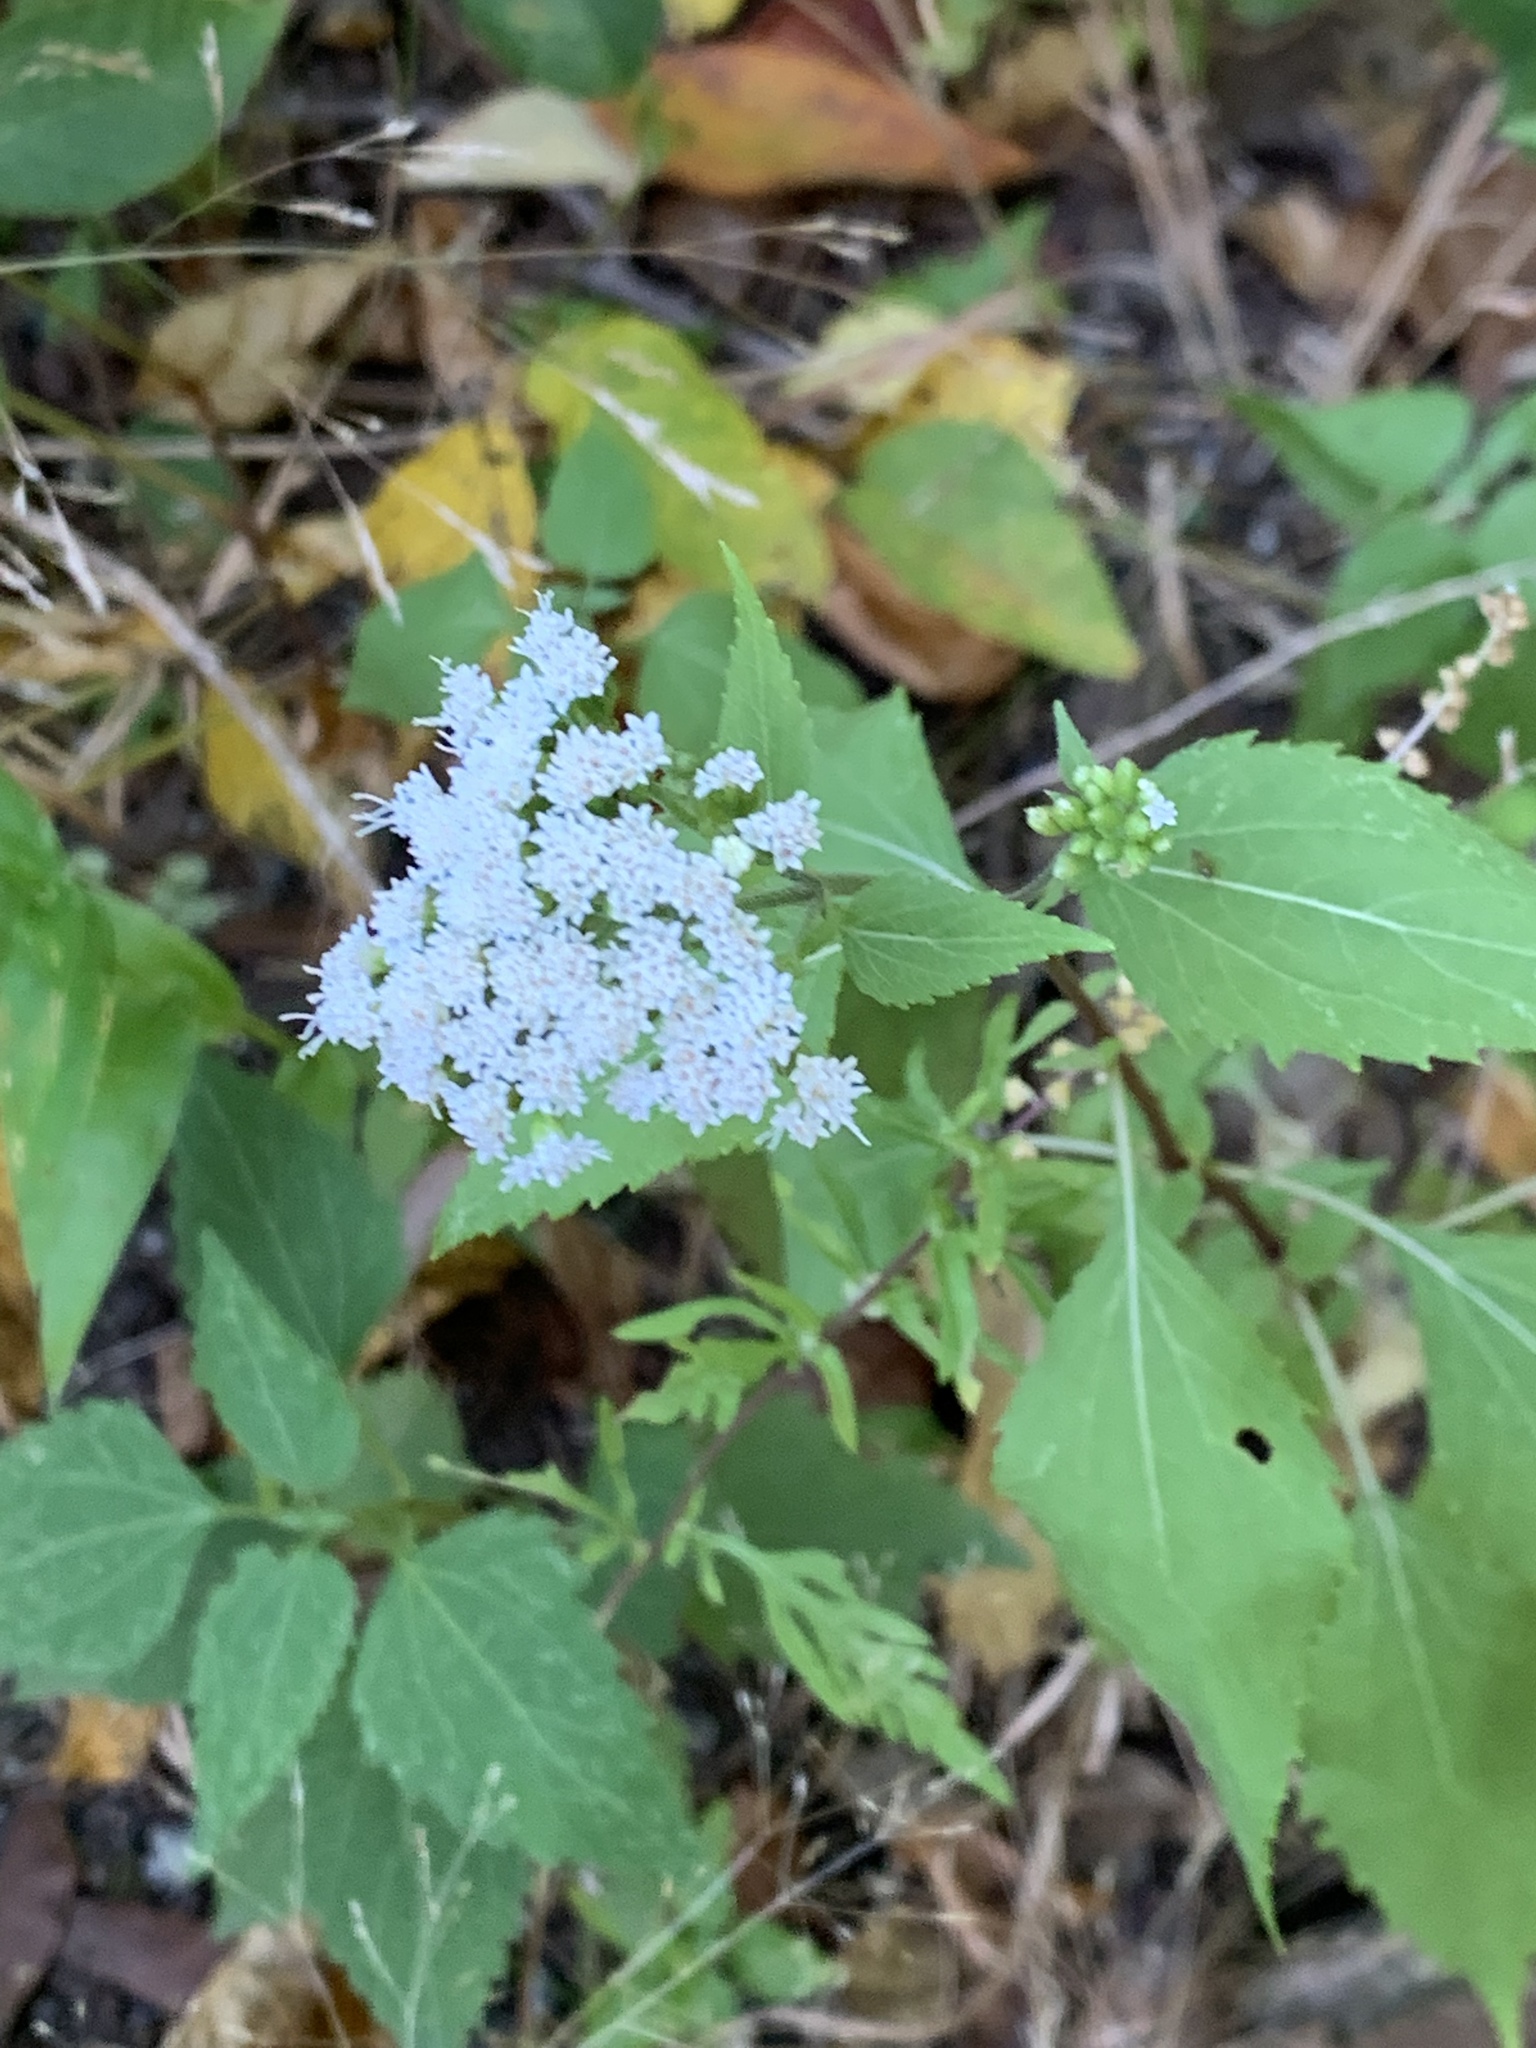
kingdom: Plantae
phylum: Tracheophyta
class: Magnoliopsida
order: Asterales
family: Asteraceae
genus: Ageratina
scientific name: Ageratina altissima
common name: White snakeroot
